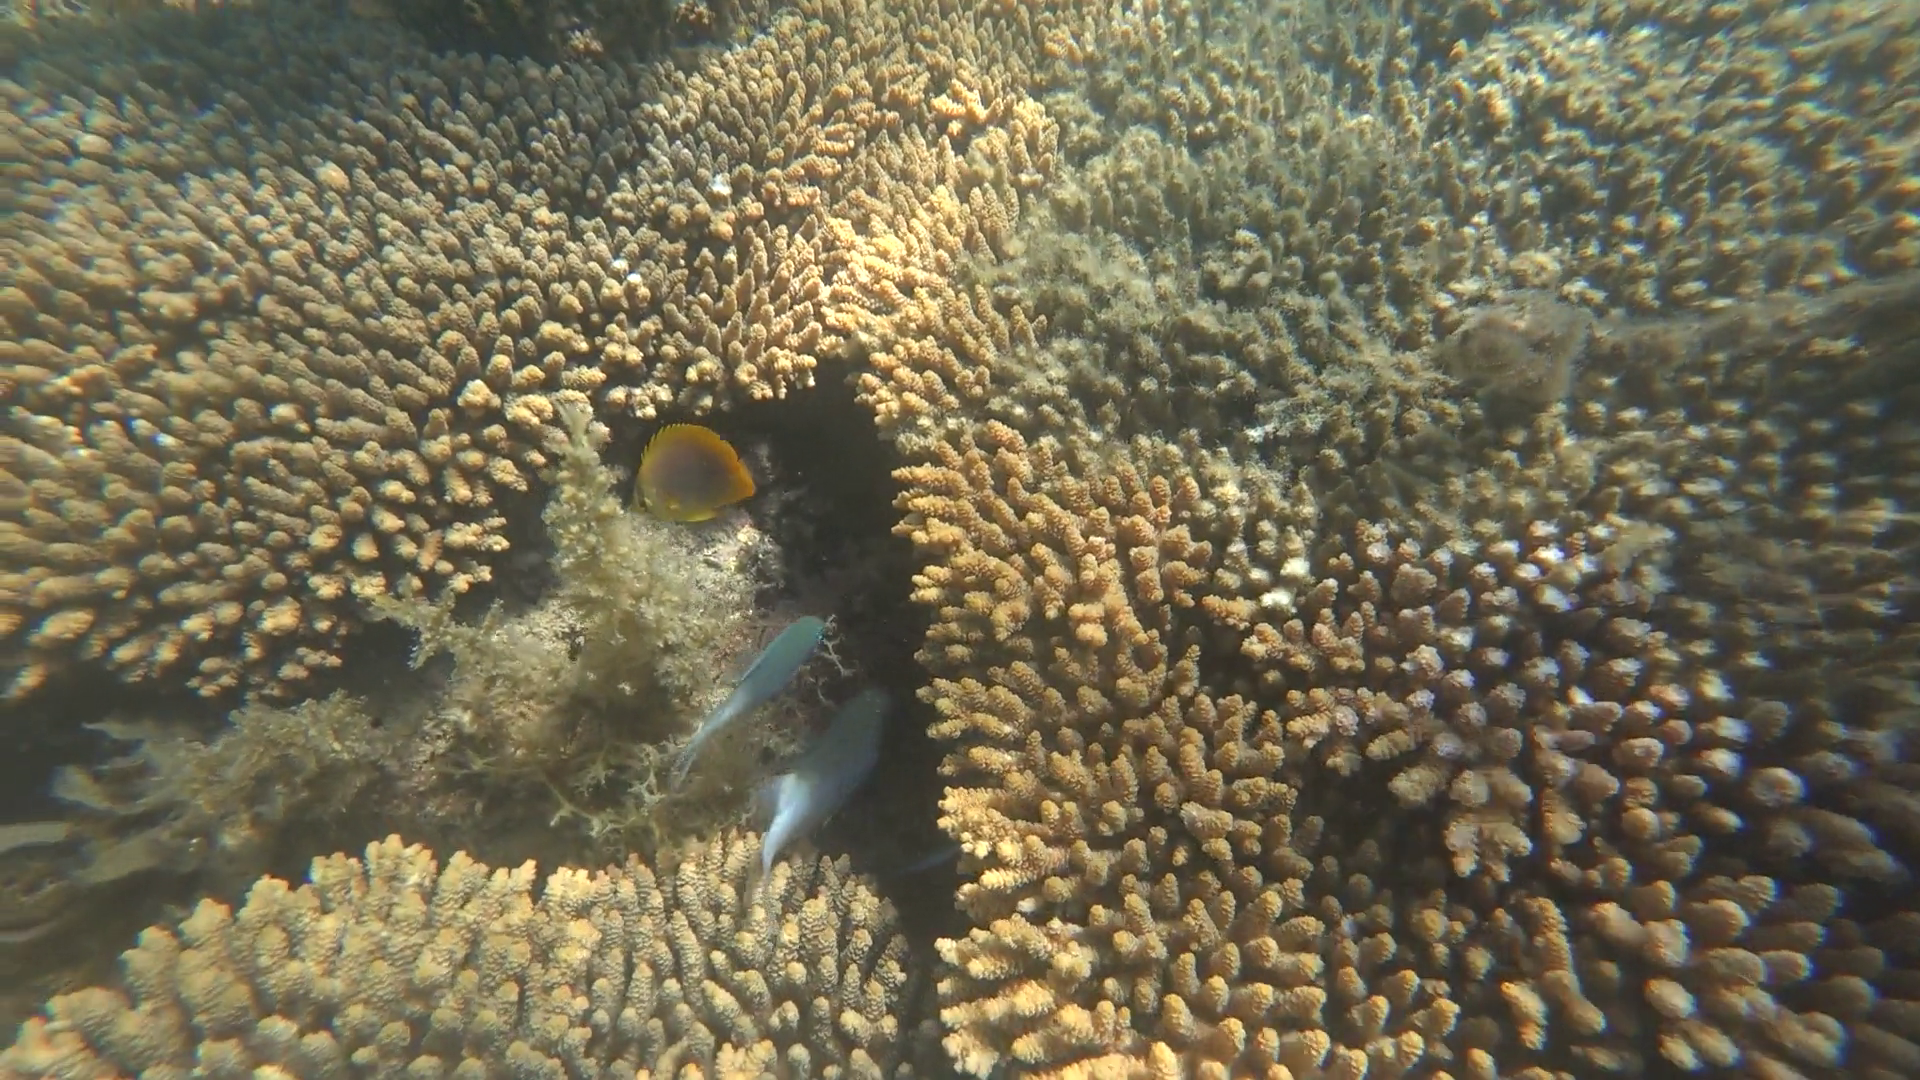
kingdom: Animalia
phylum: Chordata
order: Perciformes
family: Chaetodontidae
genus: Chaetodon
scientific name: Chaetodon aureofasciatus
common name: Golden butterflyfish
